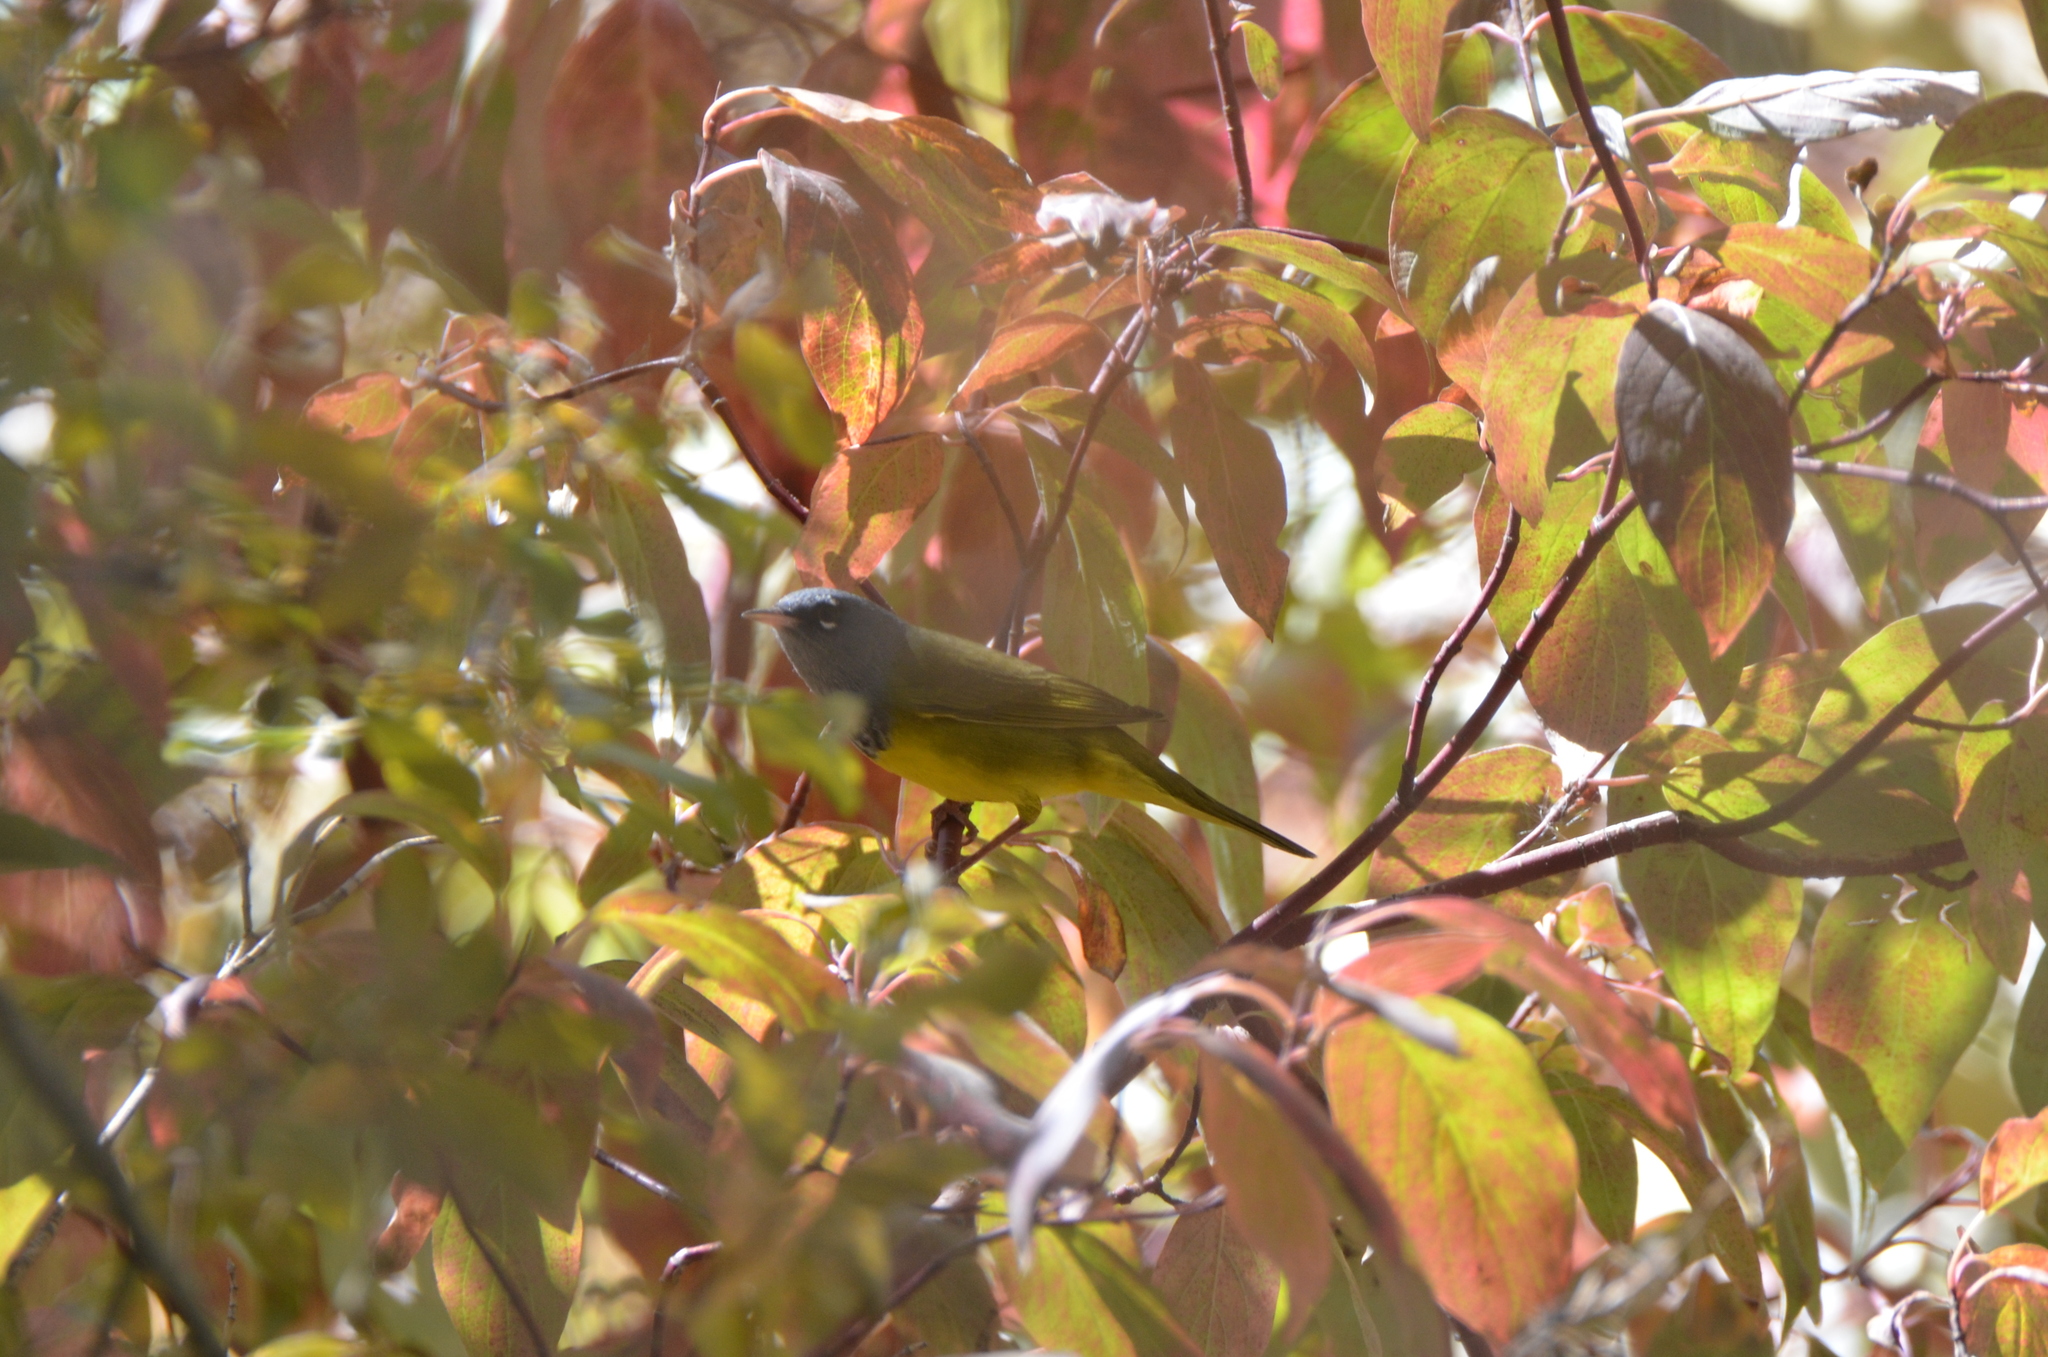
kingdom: Animalia
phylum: Chordata
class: Aves
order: Passeriformes
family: Parulidae
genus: Geothlypis
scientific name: Geothlypis tolmiei
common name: Macgillivray's warbler
